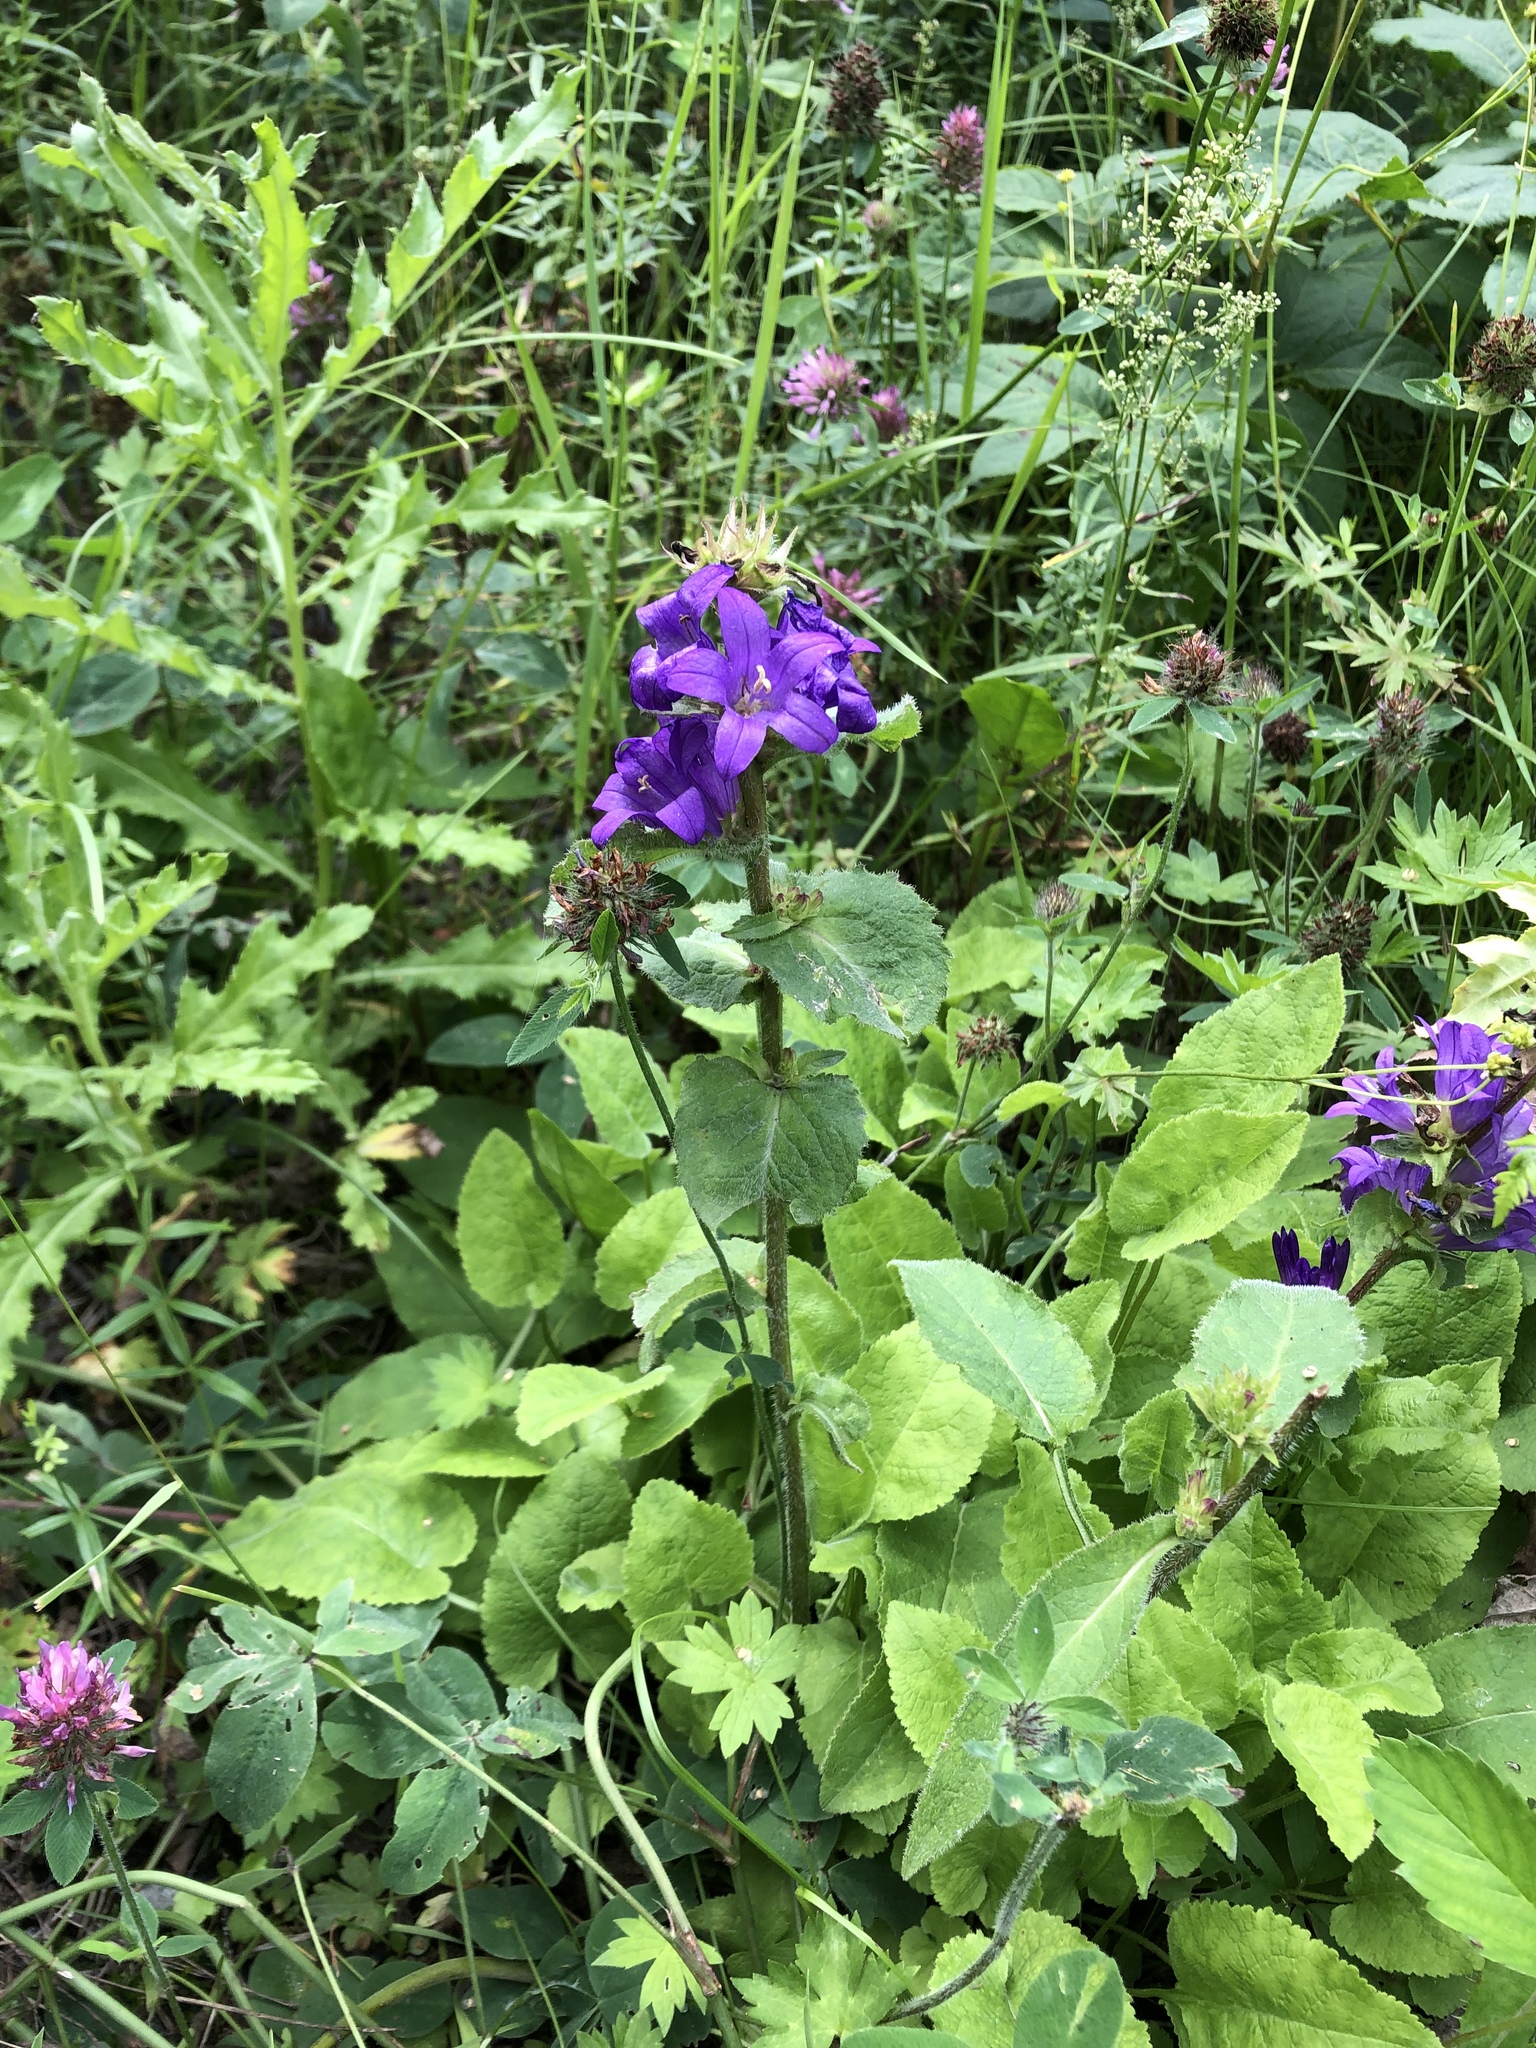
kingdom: Plantae
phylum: Tracheophyta
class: Magnoliopsida
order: Asterales
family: Campanulaceae
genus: Campanula
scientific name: Campanula glomerata
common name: Clustered bellflower
